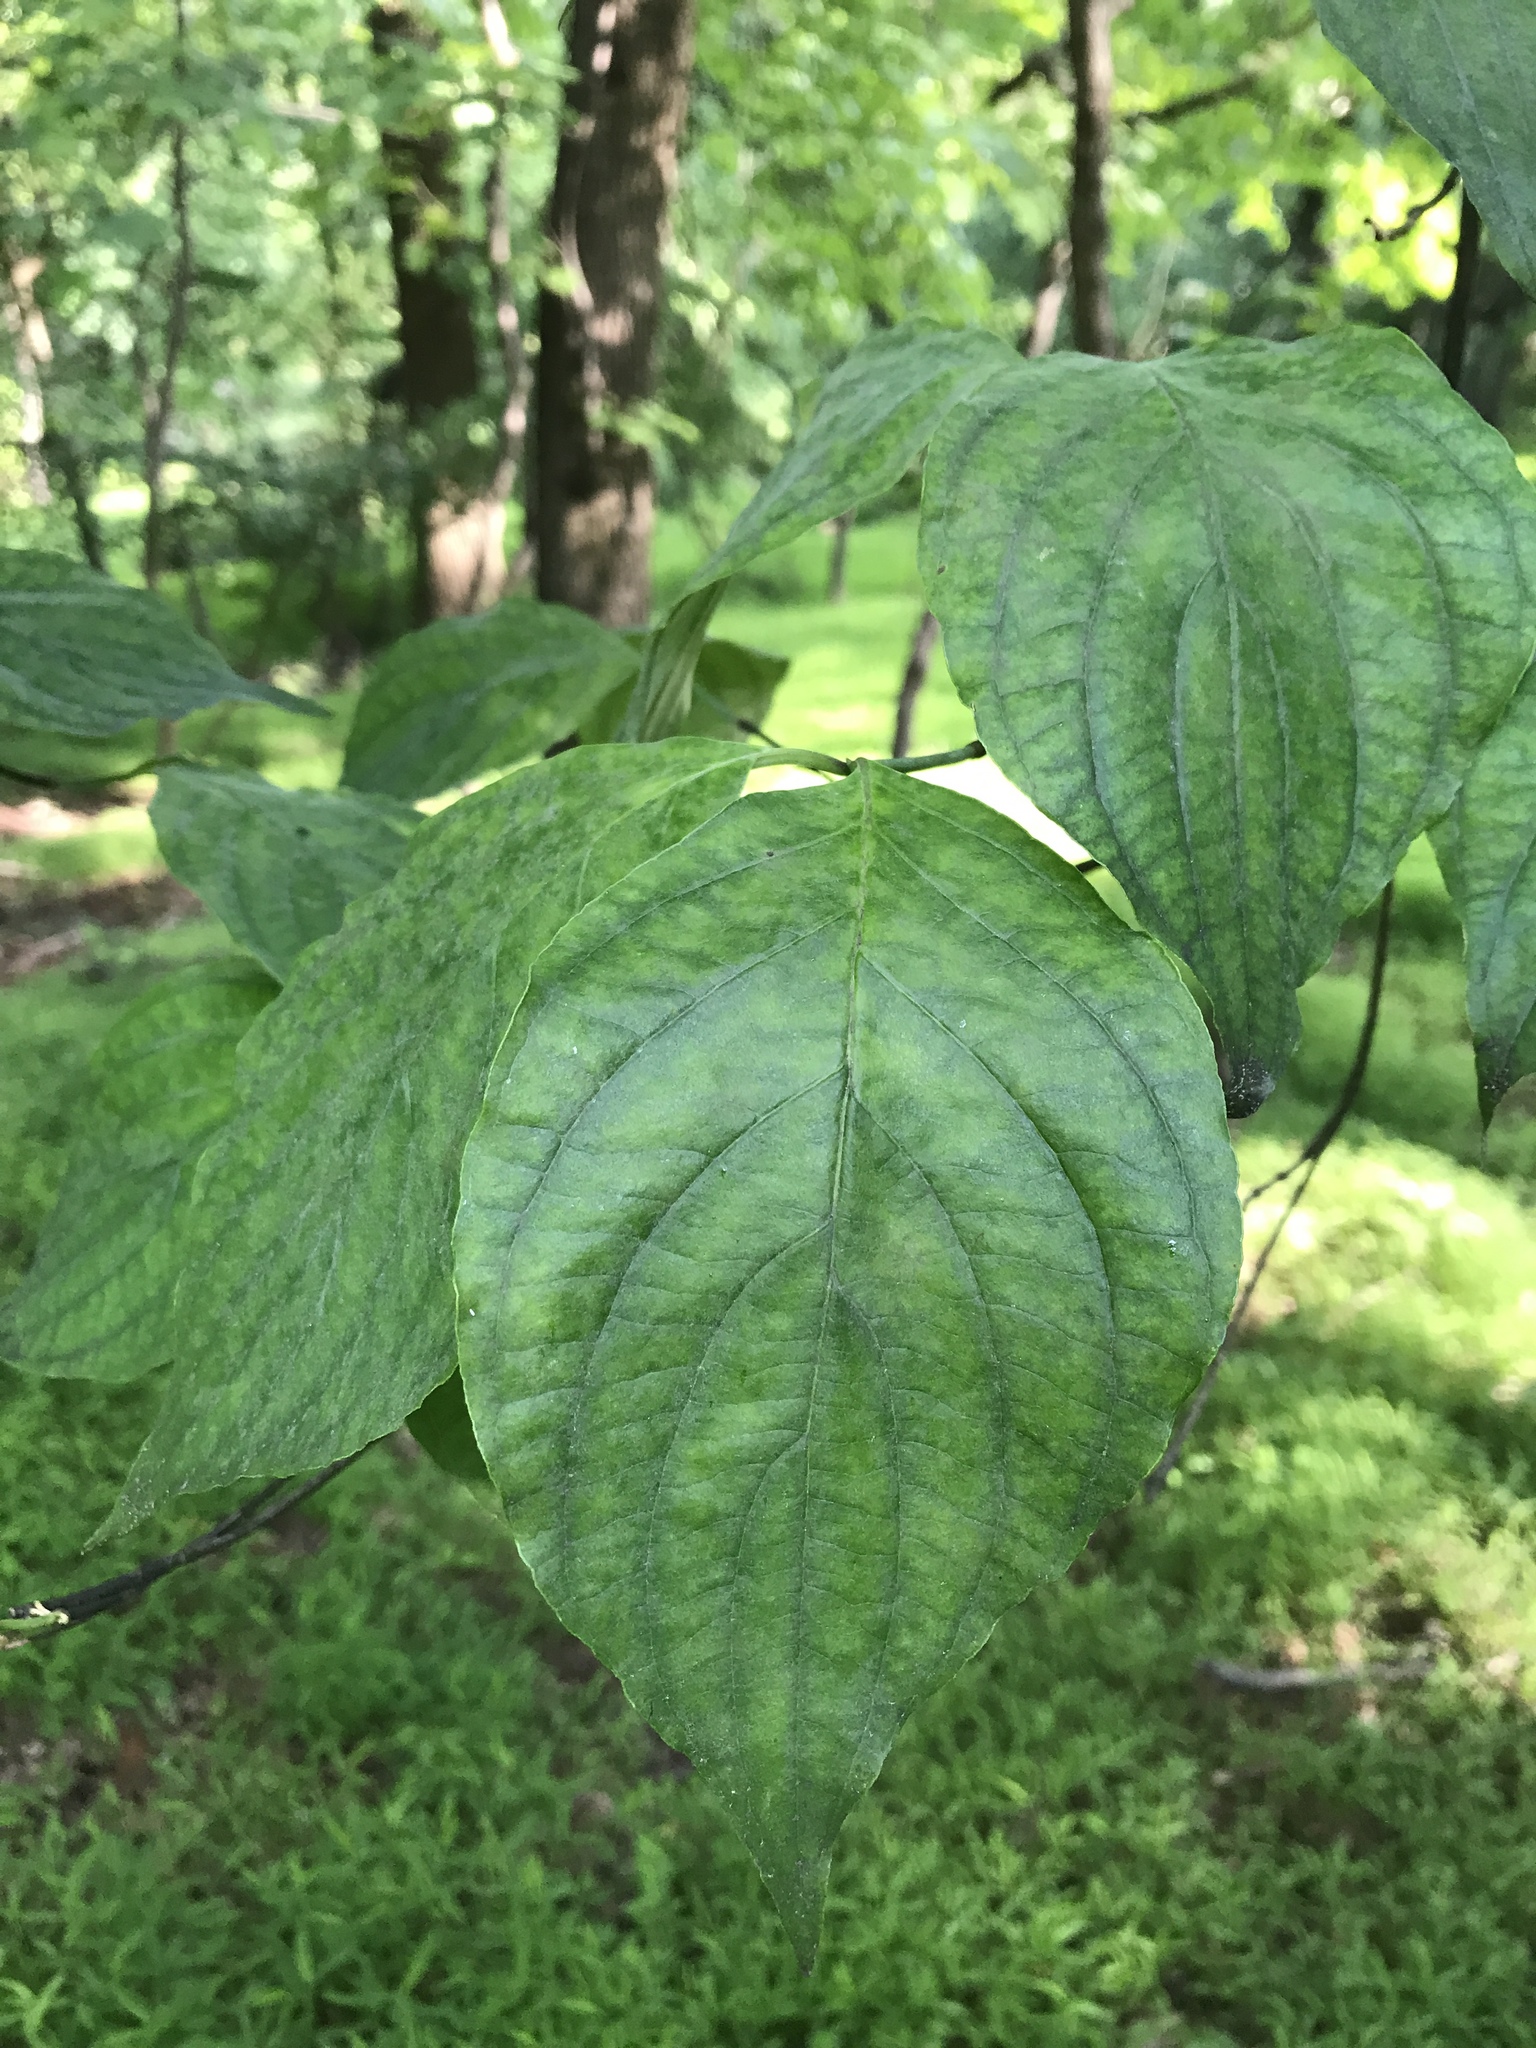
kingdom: Plantae
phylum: Tracheophyta
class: Magnoliopsida
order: Cornales
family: Cornaceae
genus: Cornus
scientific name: Cornus florida
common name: Flowering dogwood
